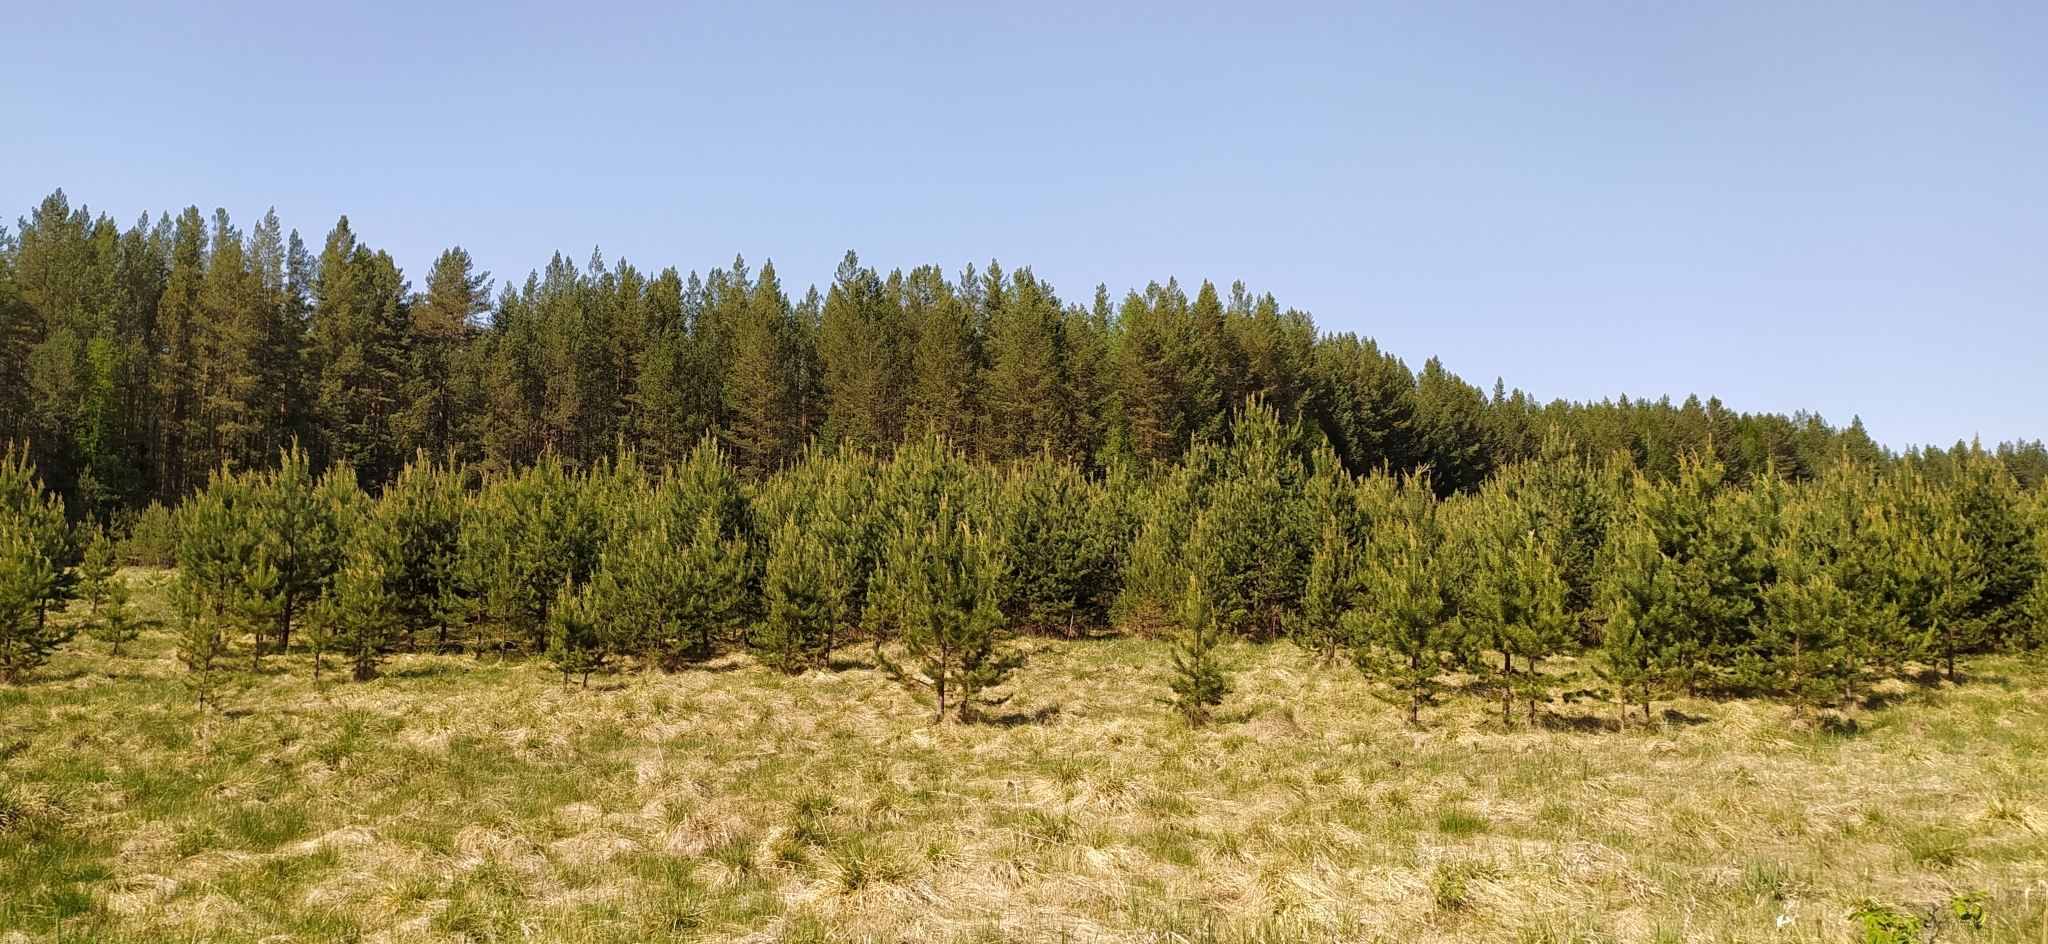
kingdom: Plantae
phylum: Tracheophyta
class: Pinopsida
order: Pinales
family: Pinaceae
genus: Pinus
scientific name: Pinus sylvestris
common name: Scots pine
